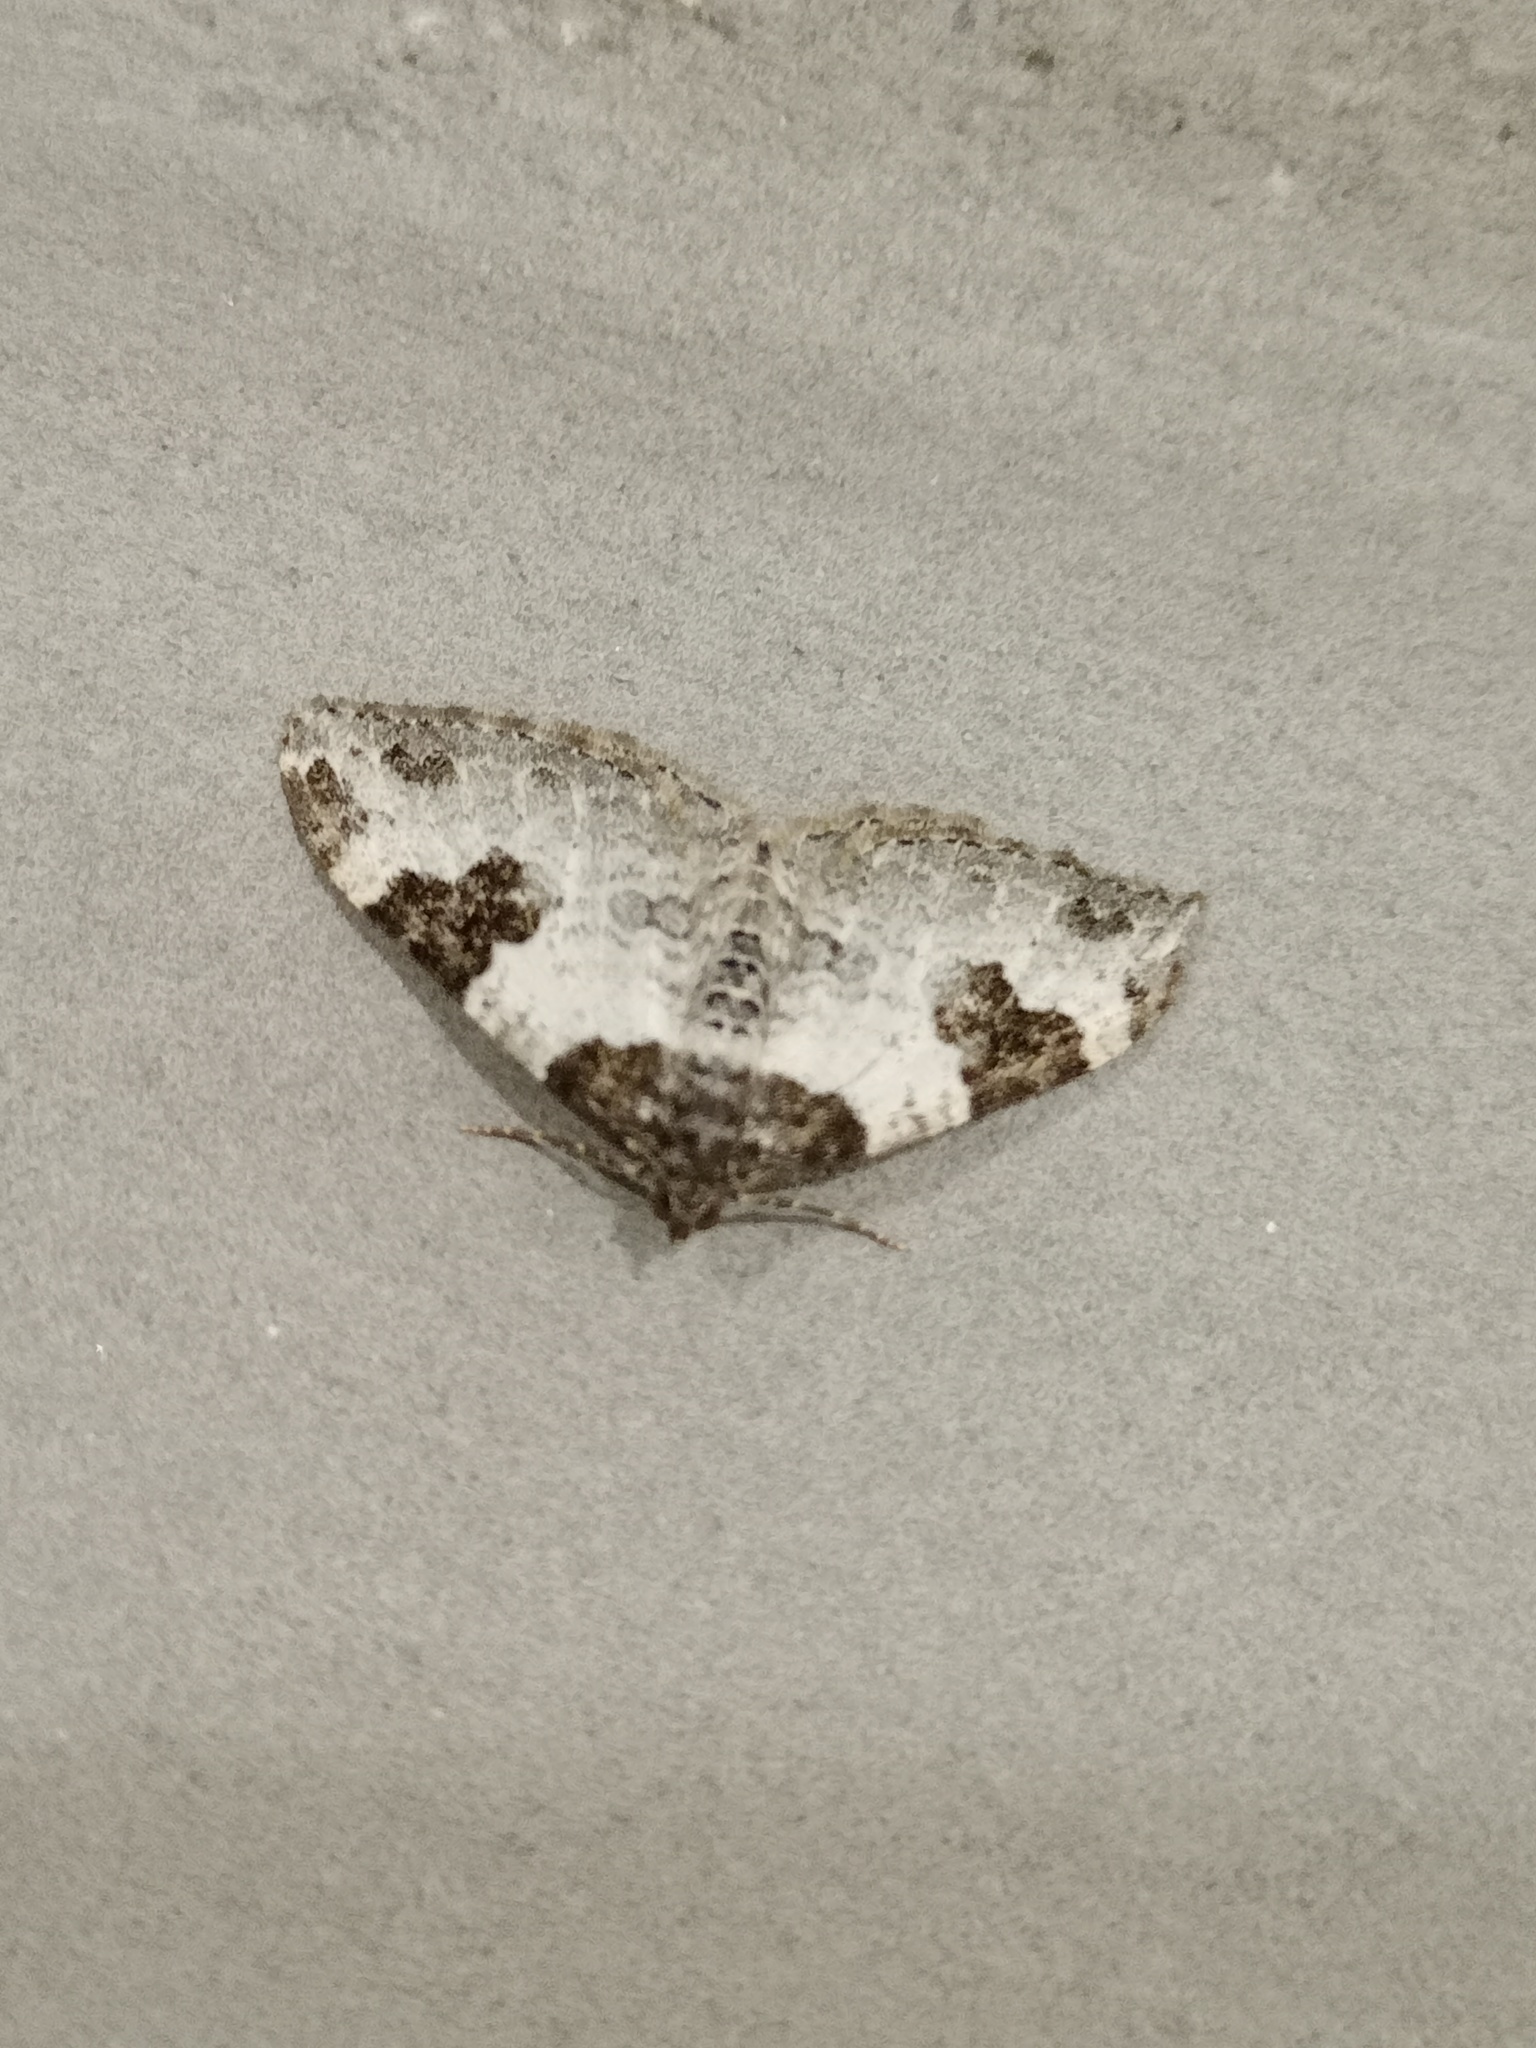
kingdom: Animalia
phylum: Arthropoda
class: Insecta
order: Lepidoptera
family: Geometridae
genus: Xanthorhoe
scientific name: Xanthorhoe fluctuata
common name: Garden carpet
